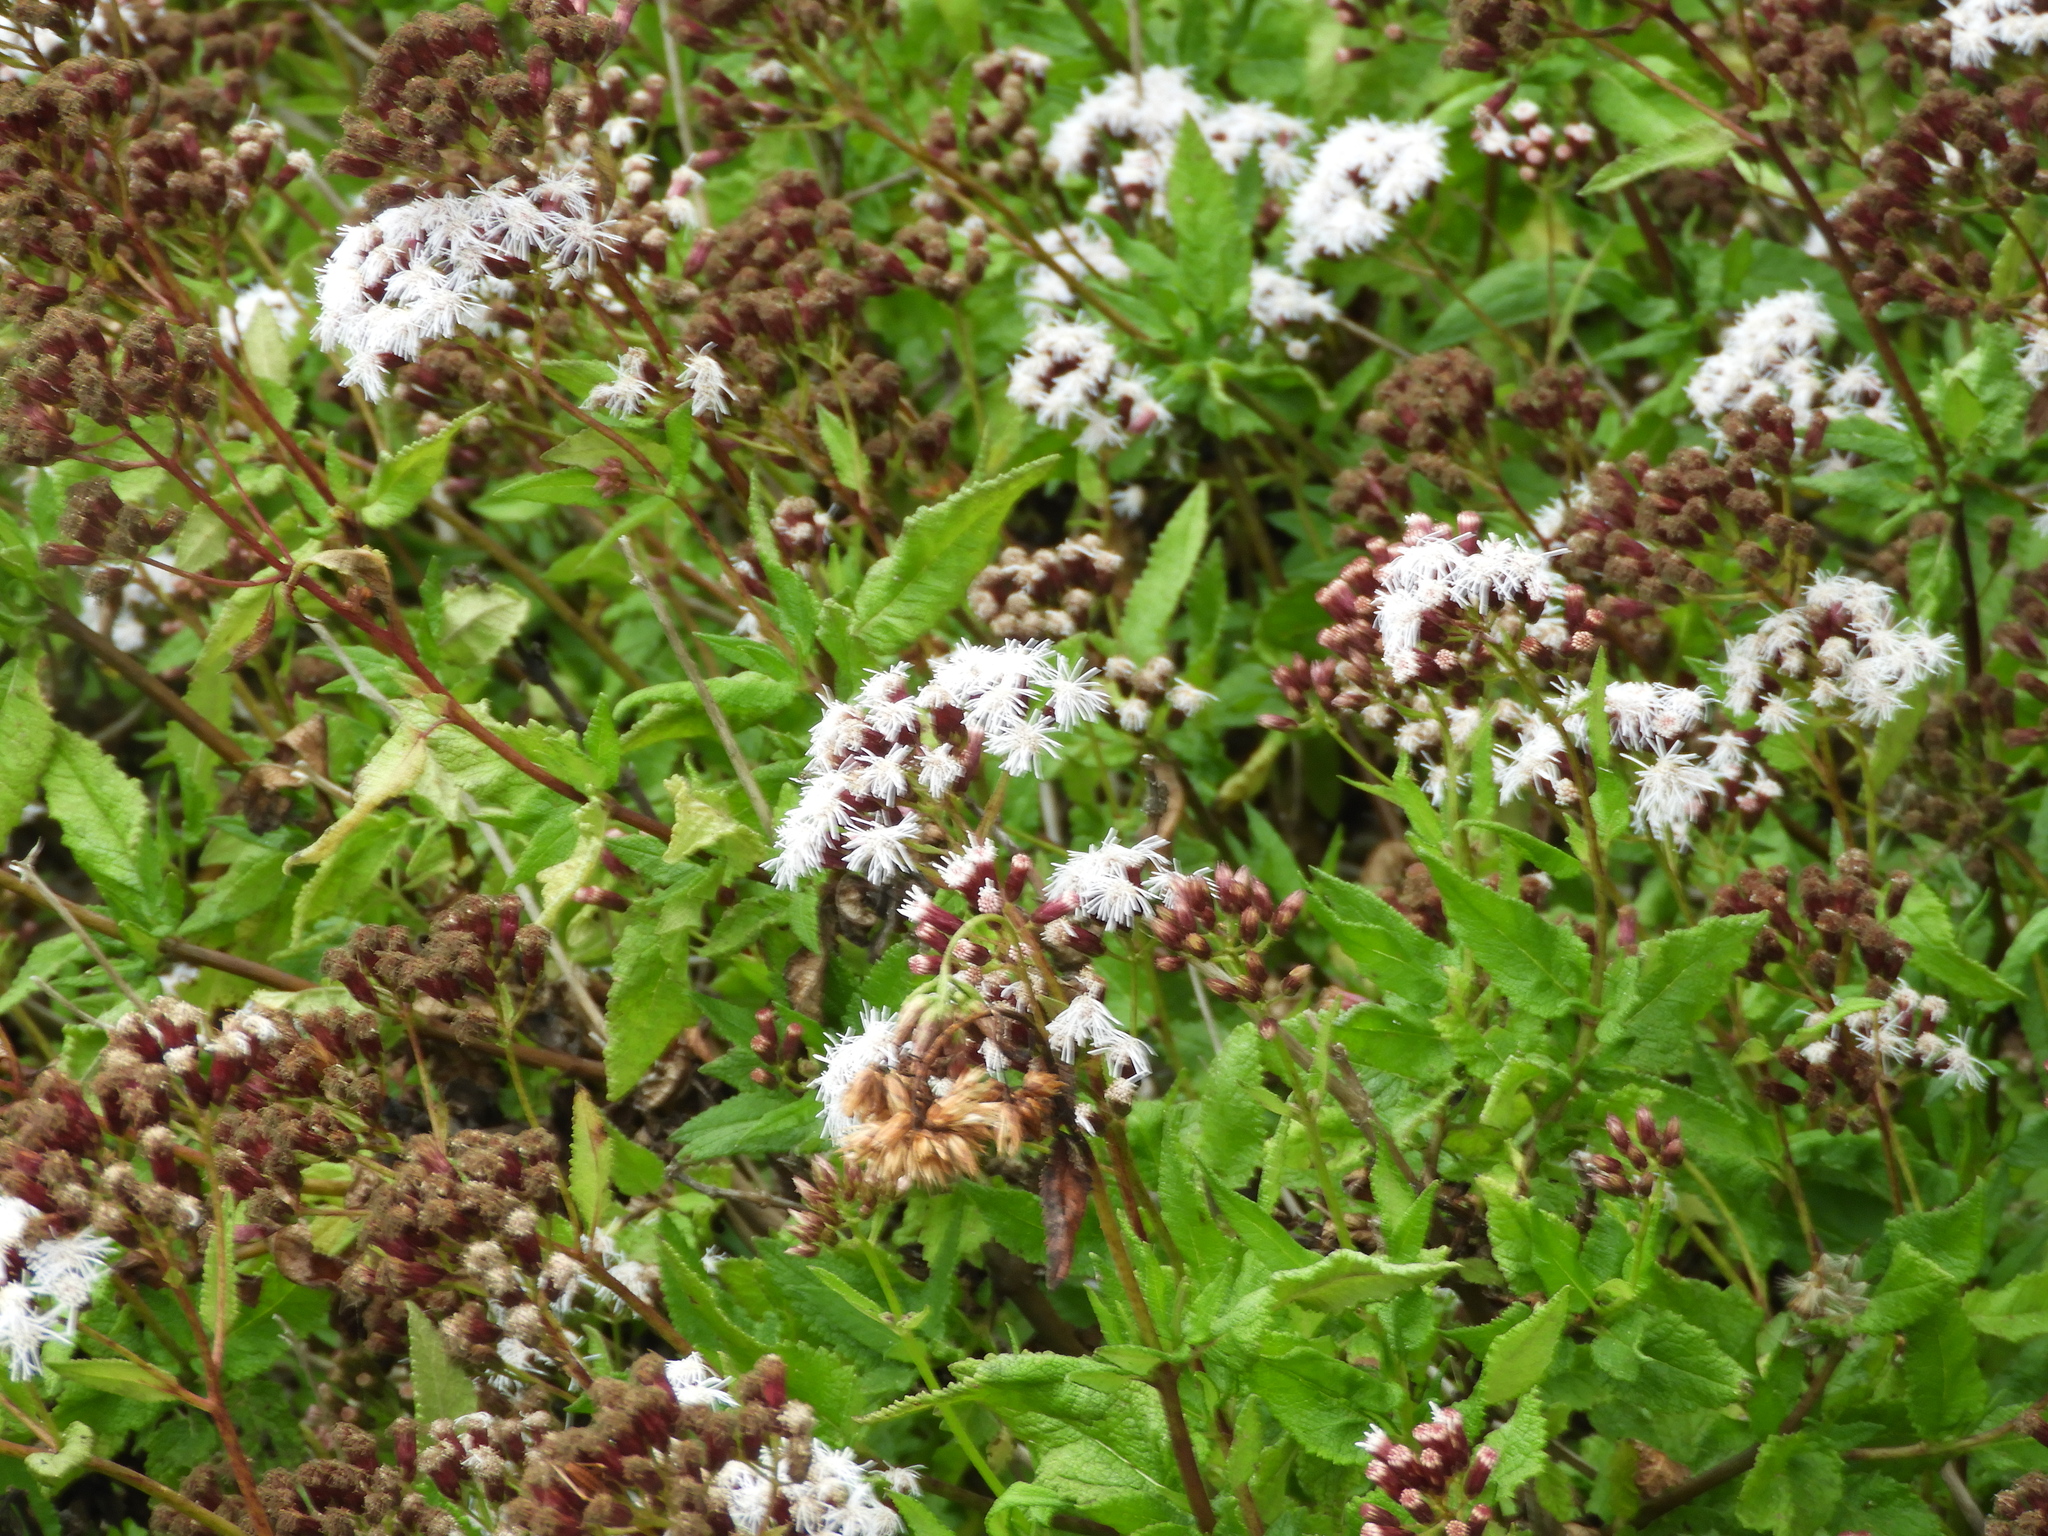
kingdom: Plantae
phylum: Tracheophyta
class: Magnoliopsida
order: Asterales
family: Asteraceae
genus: Aristeguietia
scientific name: Aristeguietia salvia
